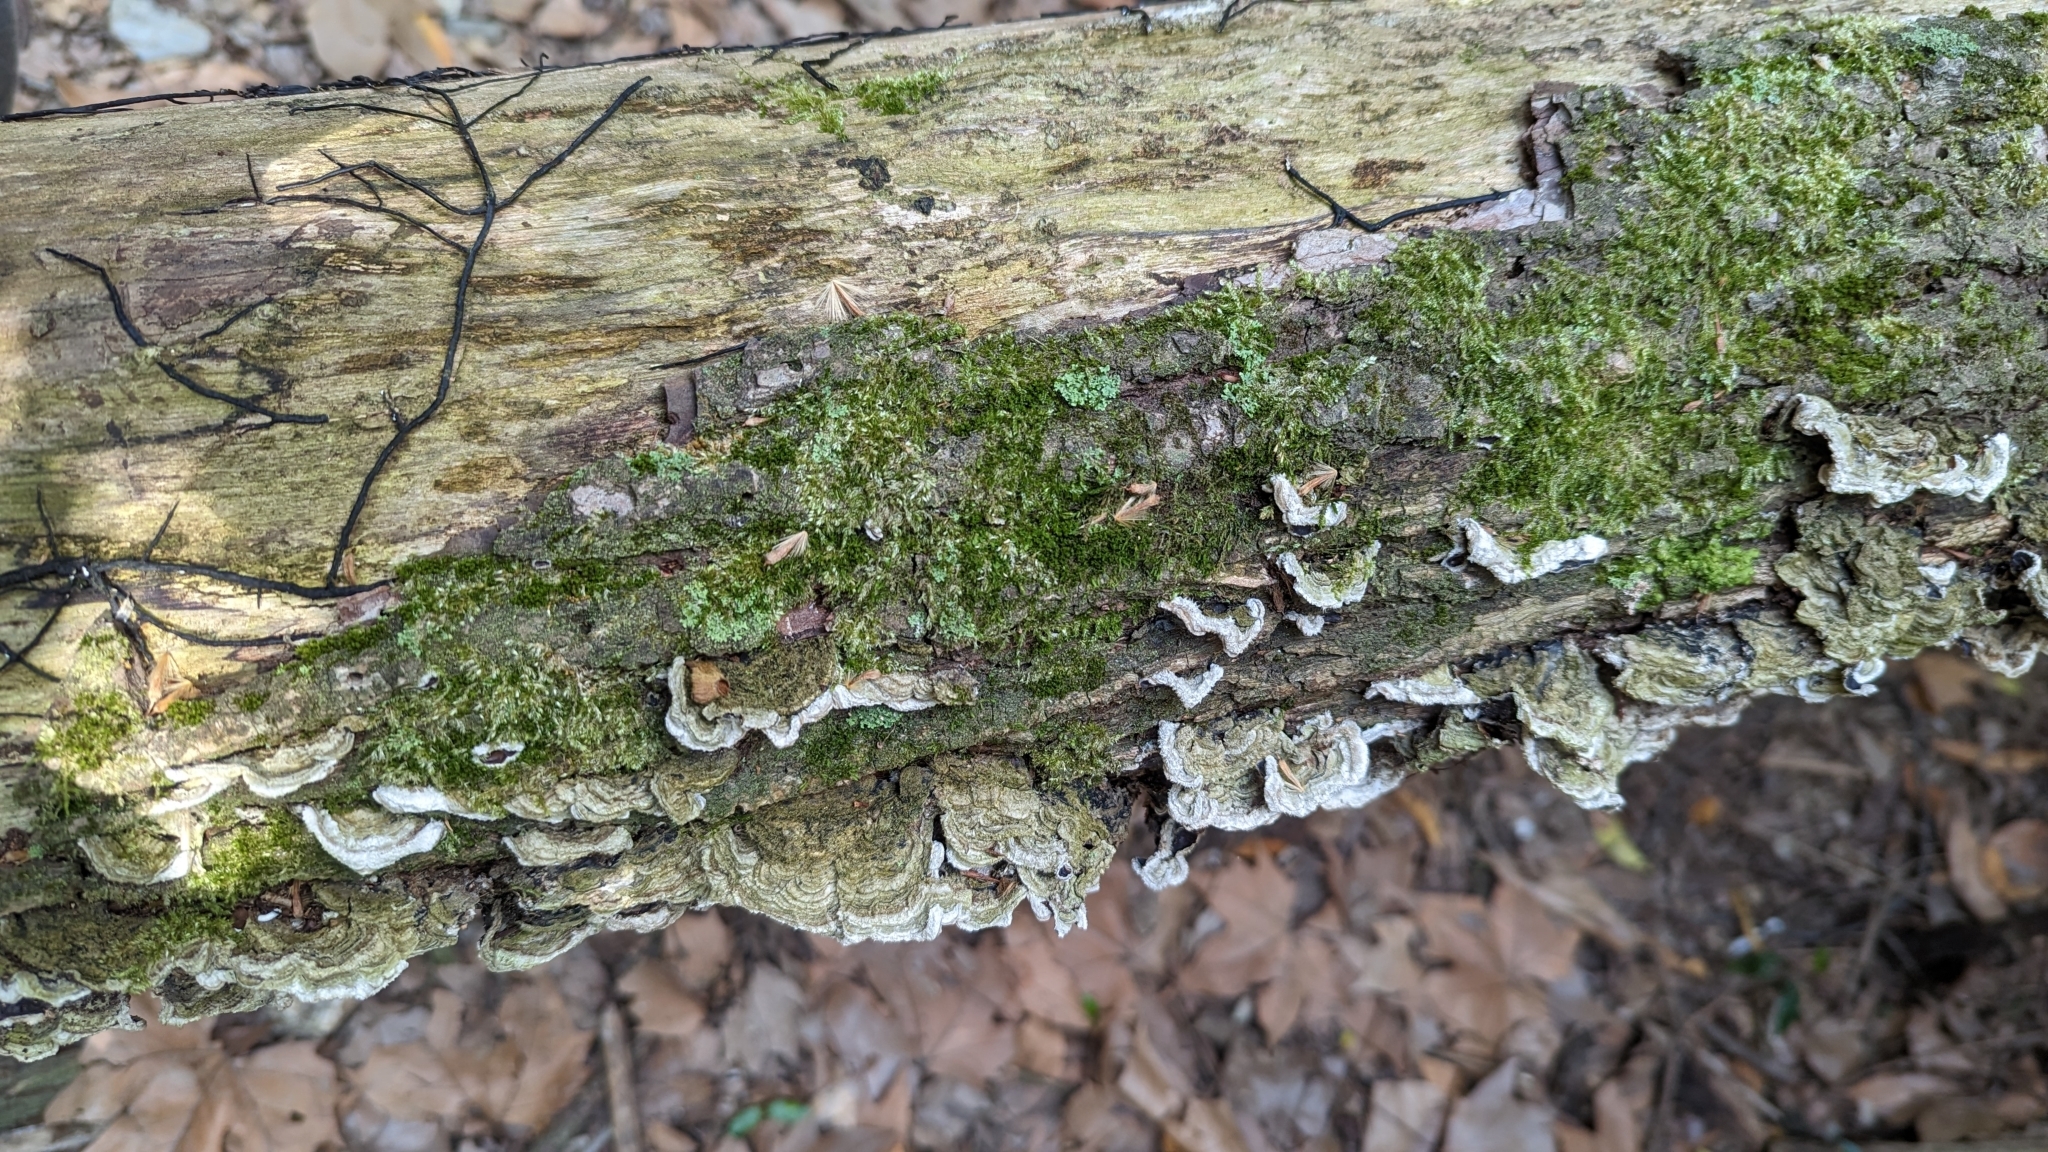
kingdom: Fungi
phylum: Basidiomycota
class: Agaricomycetes
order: Auriculariales
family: Auriculariaceae
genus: Auricularia
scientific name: Auricularia mesenterica
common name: Tripe fungus
